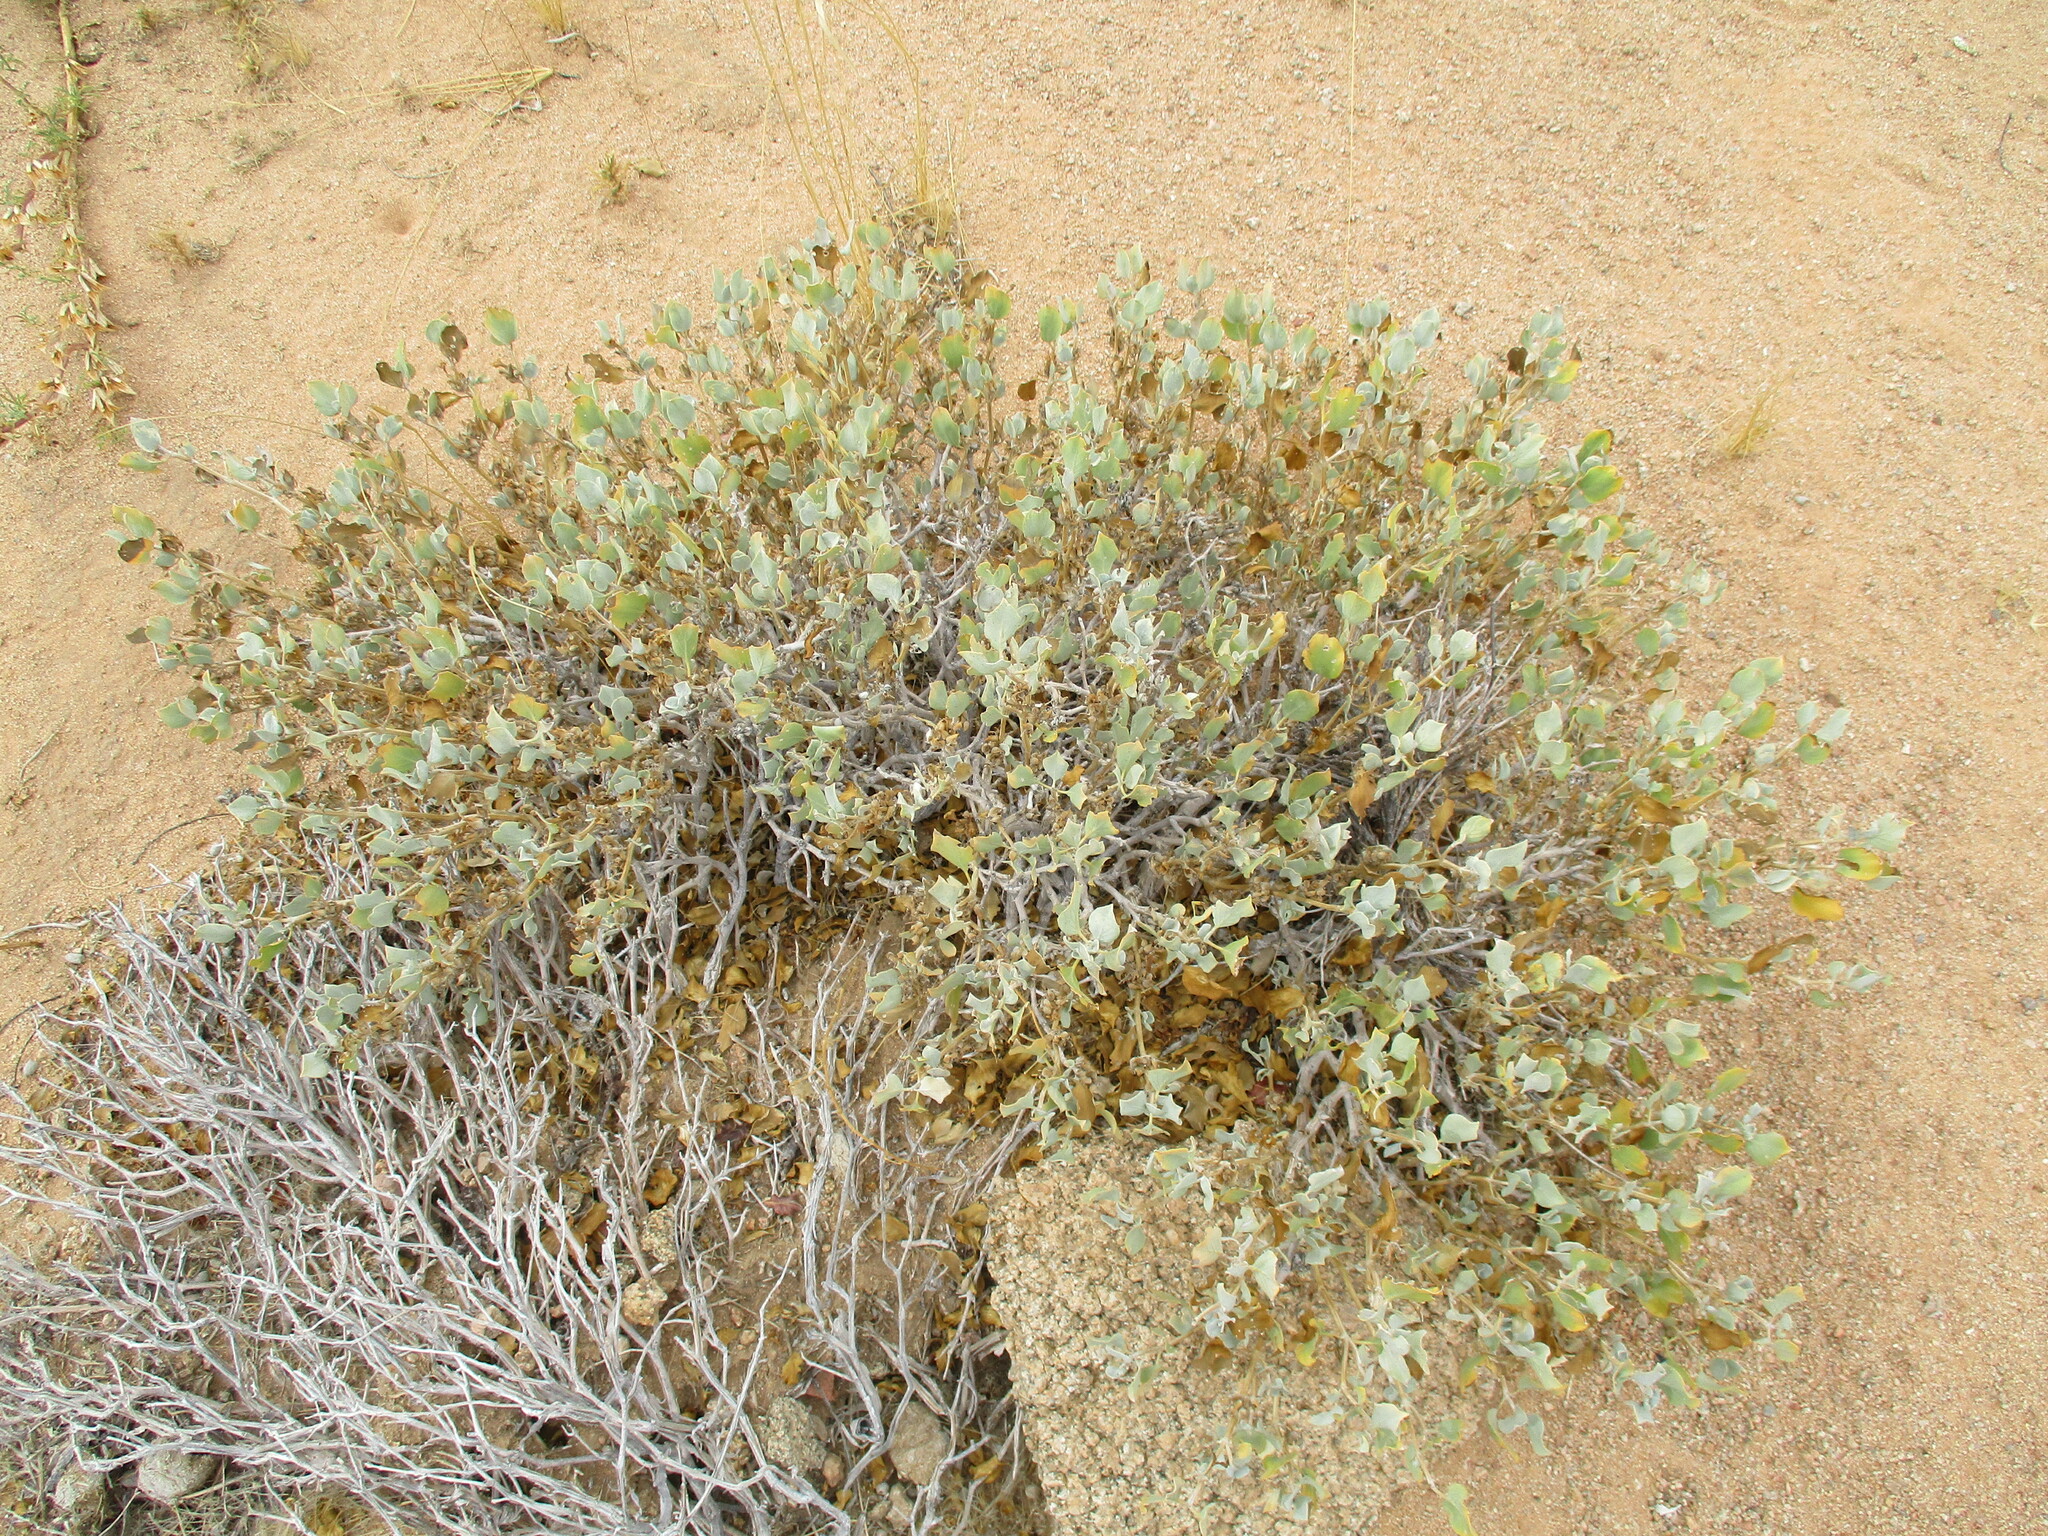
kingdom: Plantae
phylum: Tracheophyta
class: Magnoliopsida
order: Lamiales
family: Acanthaceae
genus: Petalidium
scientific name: Petalidium variabile
